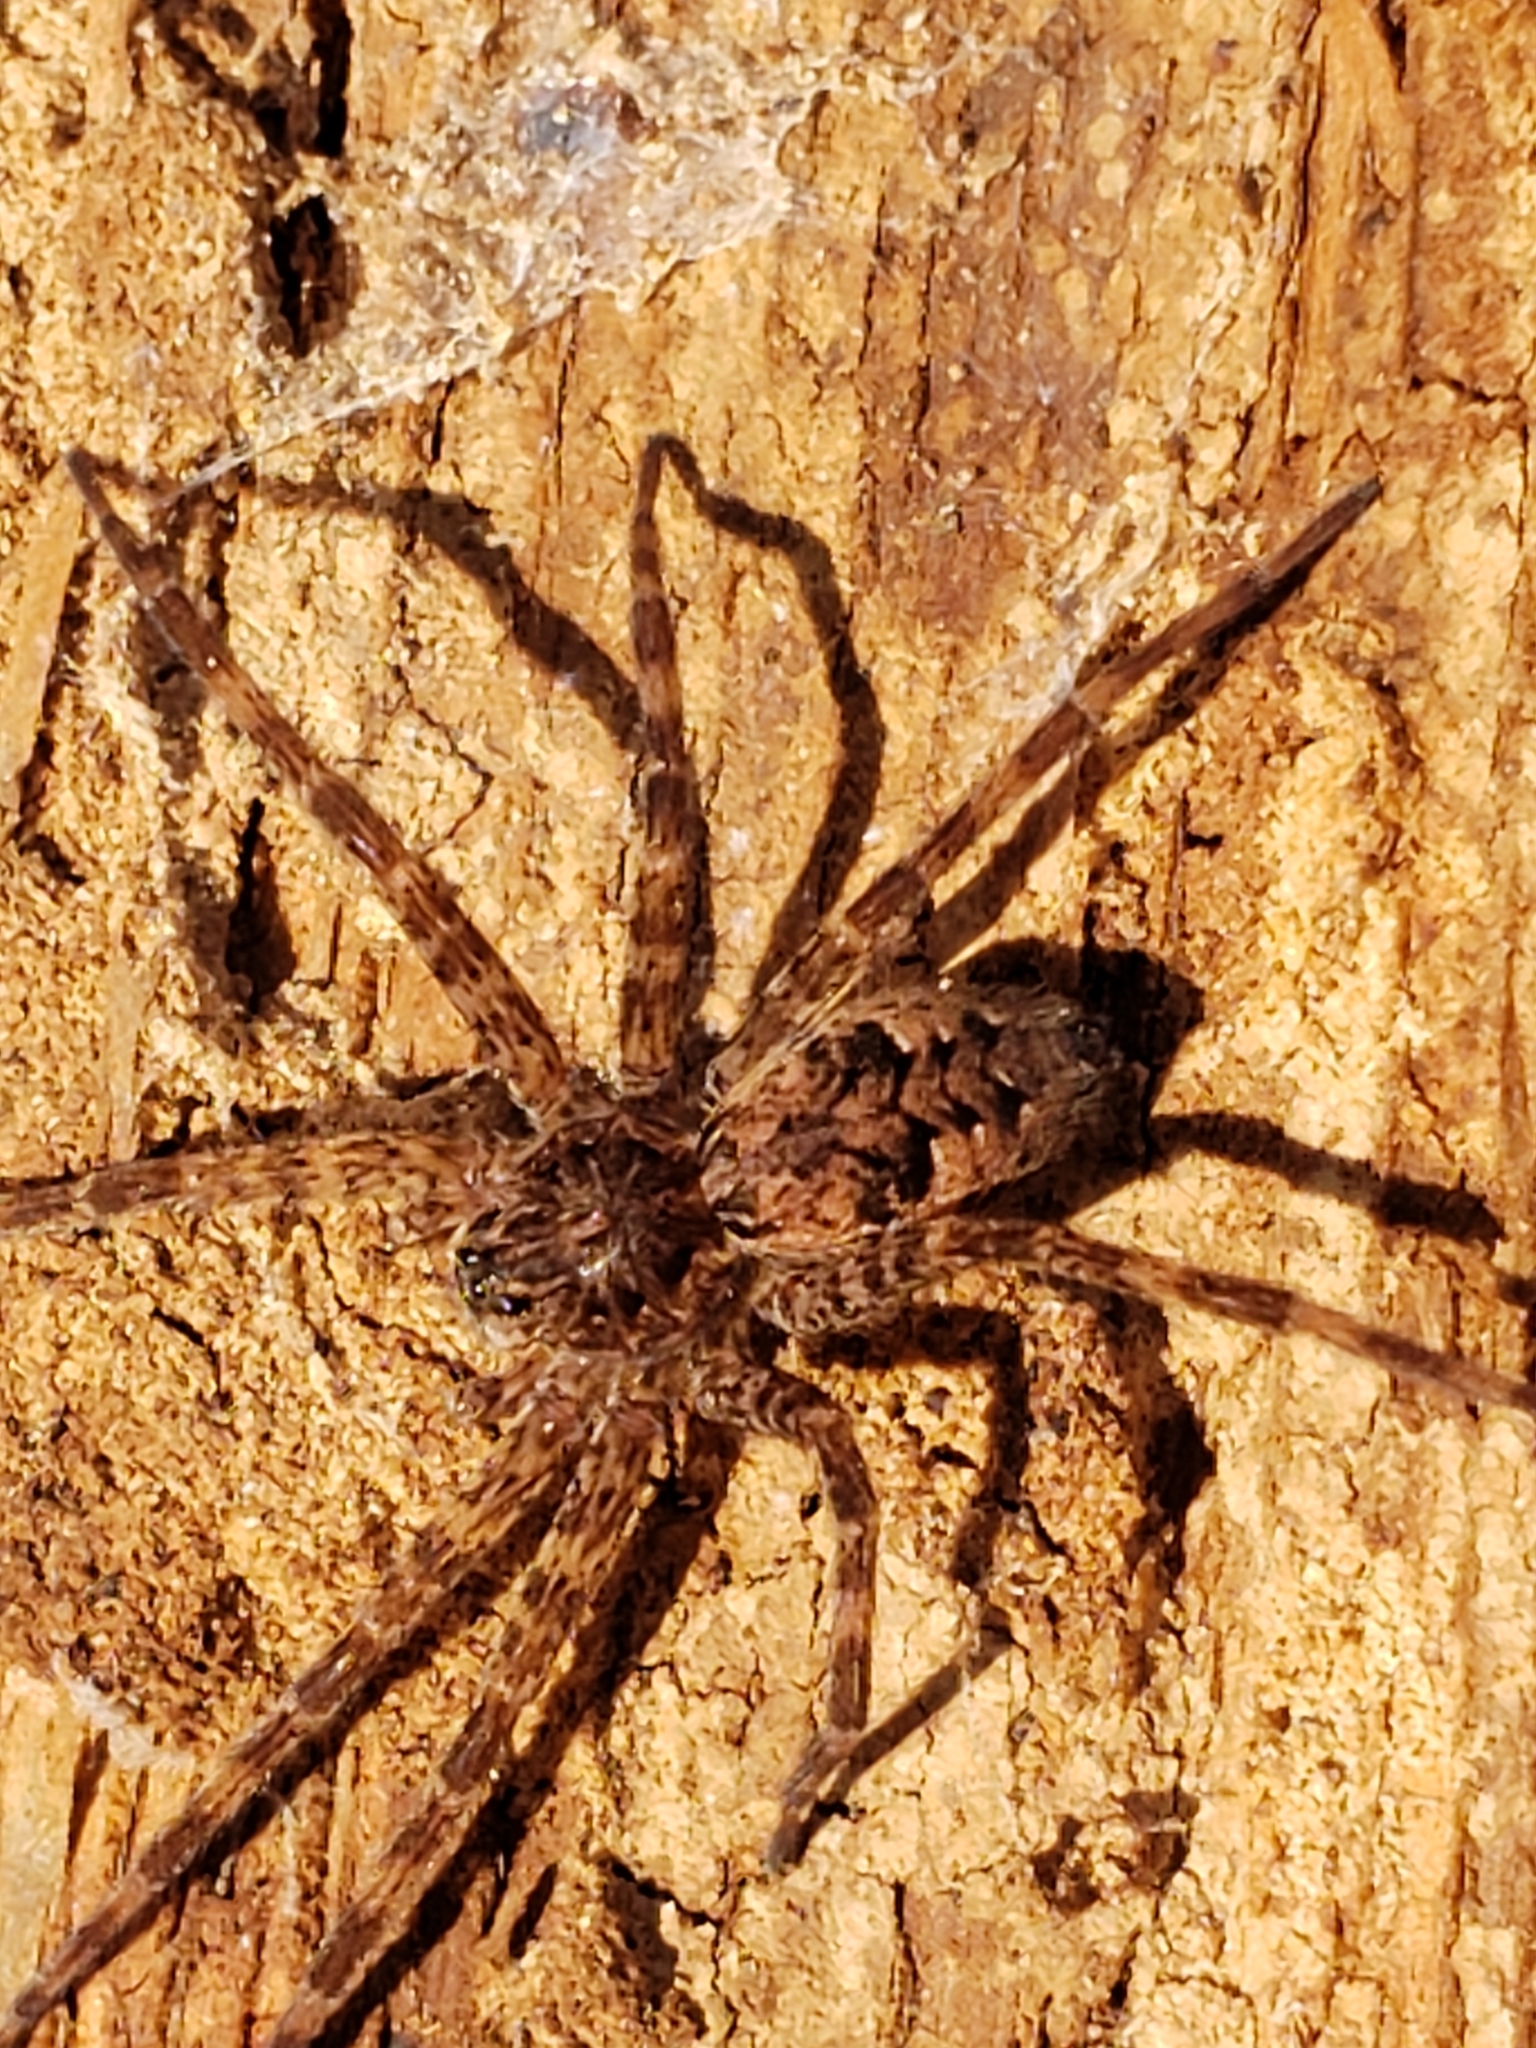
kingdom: Animalia
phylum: Arthropoda
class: Arachnida
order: Araneae
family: Pisauridae
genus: Dolomedes
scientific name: Dolomedes tenebrosus
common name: Dark fishing spider
